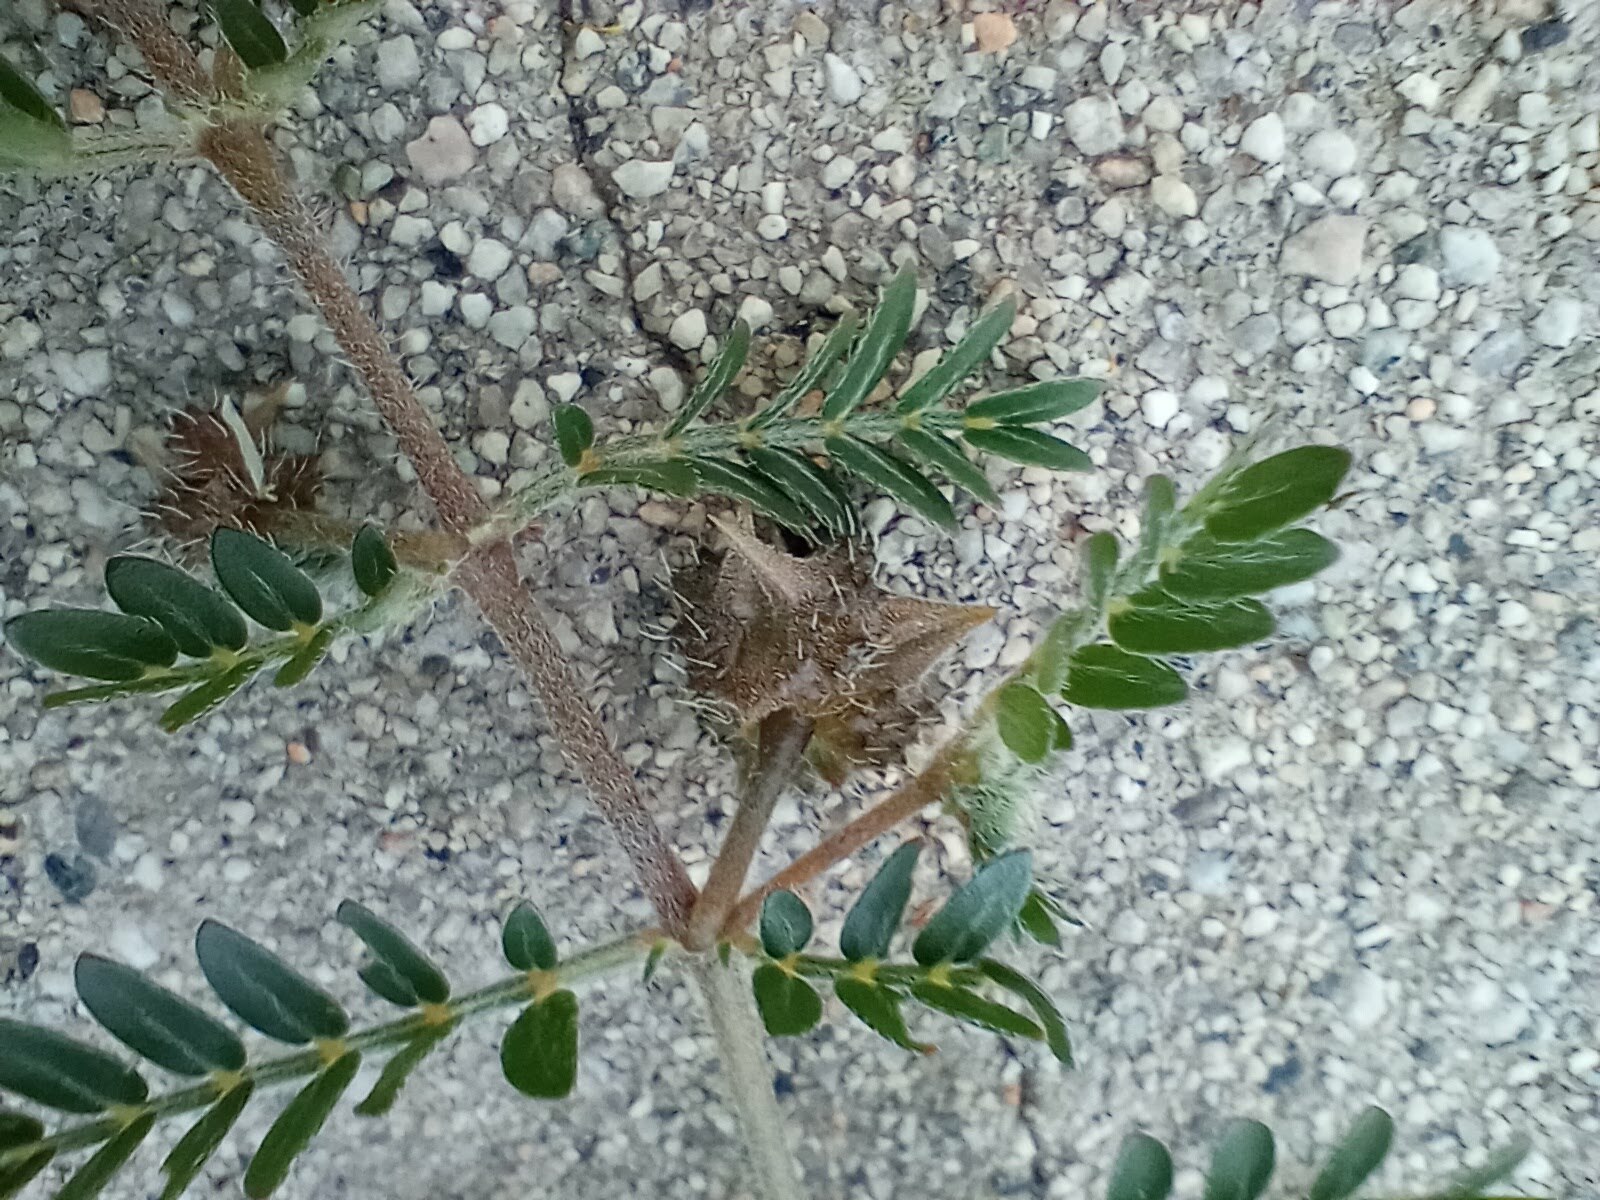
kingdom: Plantae
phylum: Tracheophyta
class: Magnoliopsida
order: Zygophyllales
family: Zygophyllaceae
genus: Tribulus
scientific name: Tribulus terrestris
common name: Puncturevine
